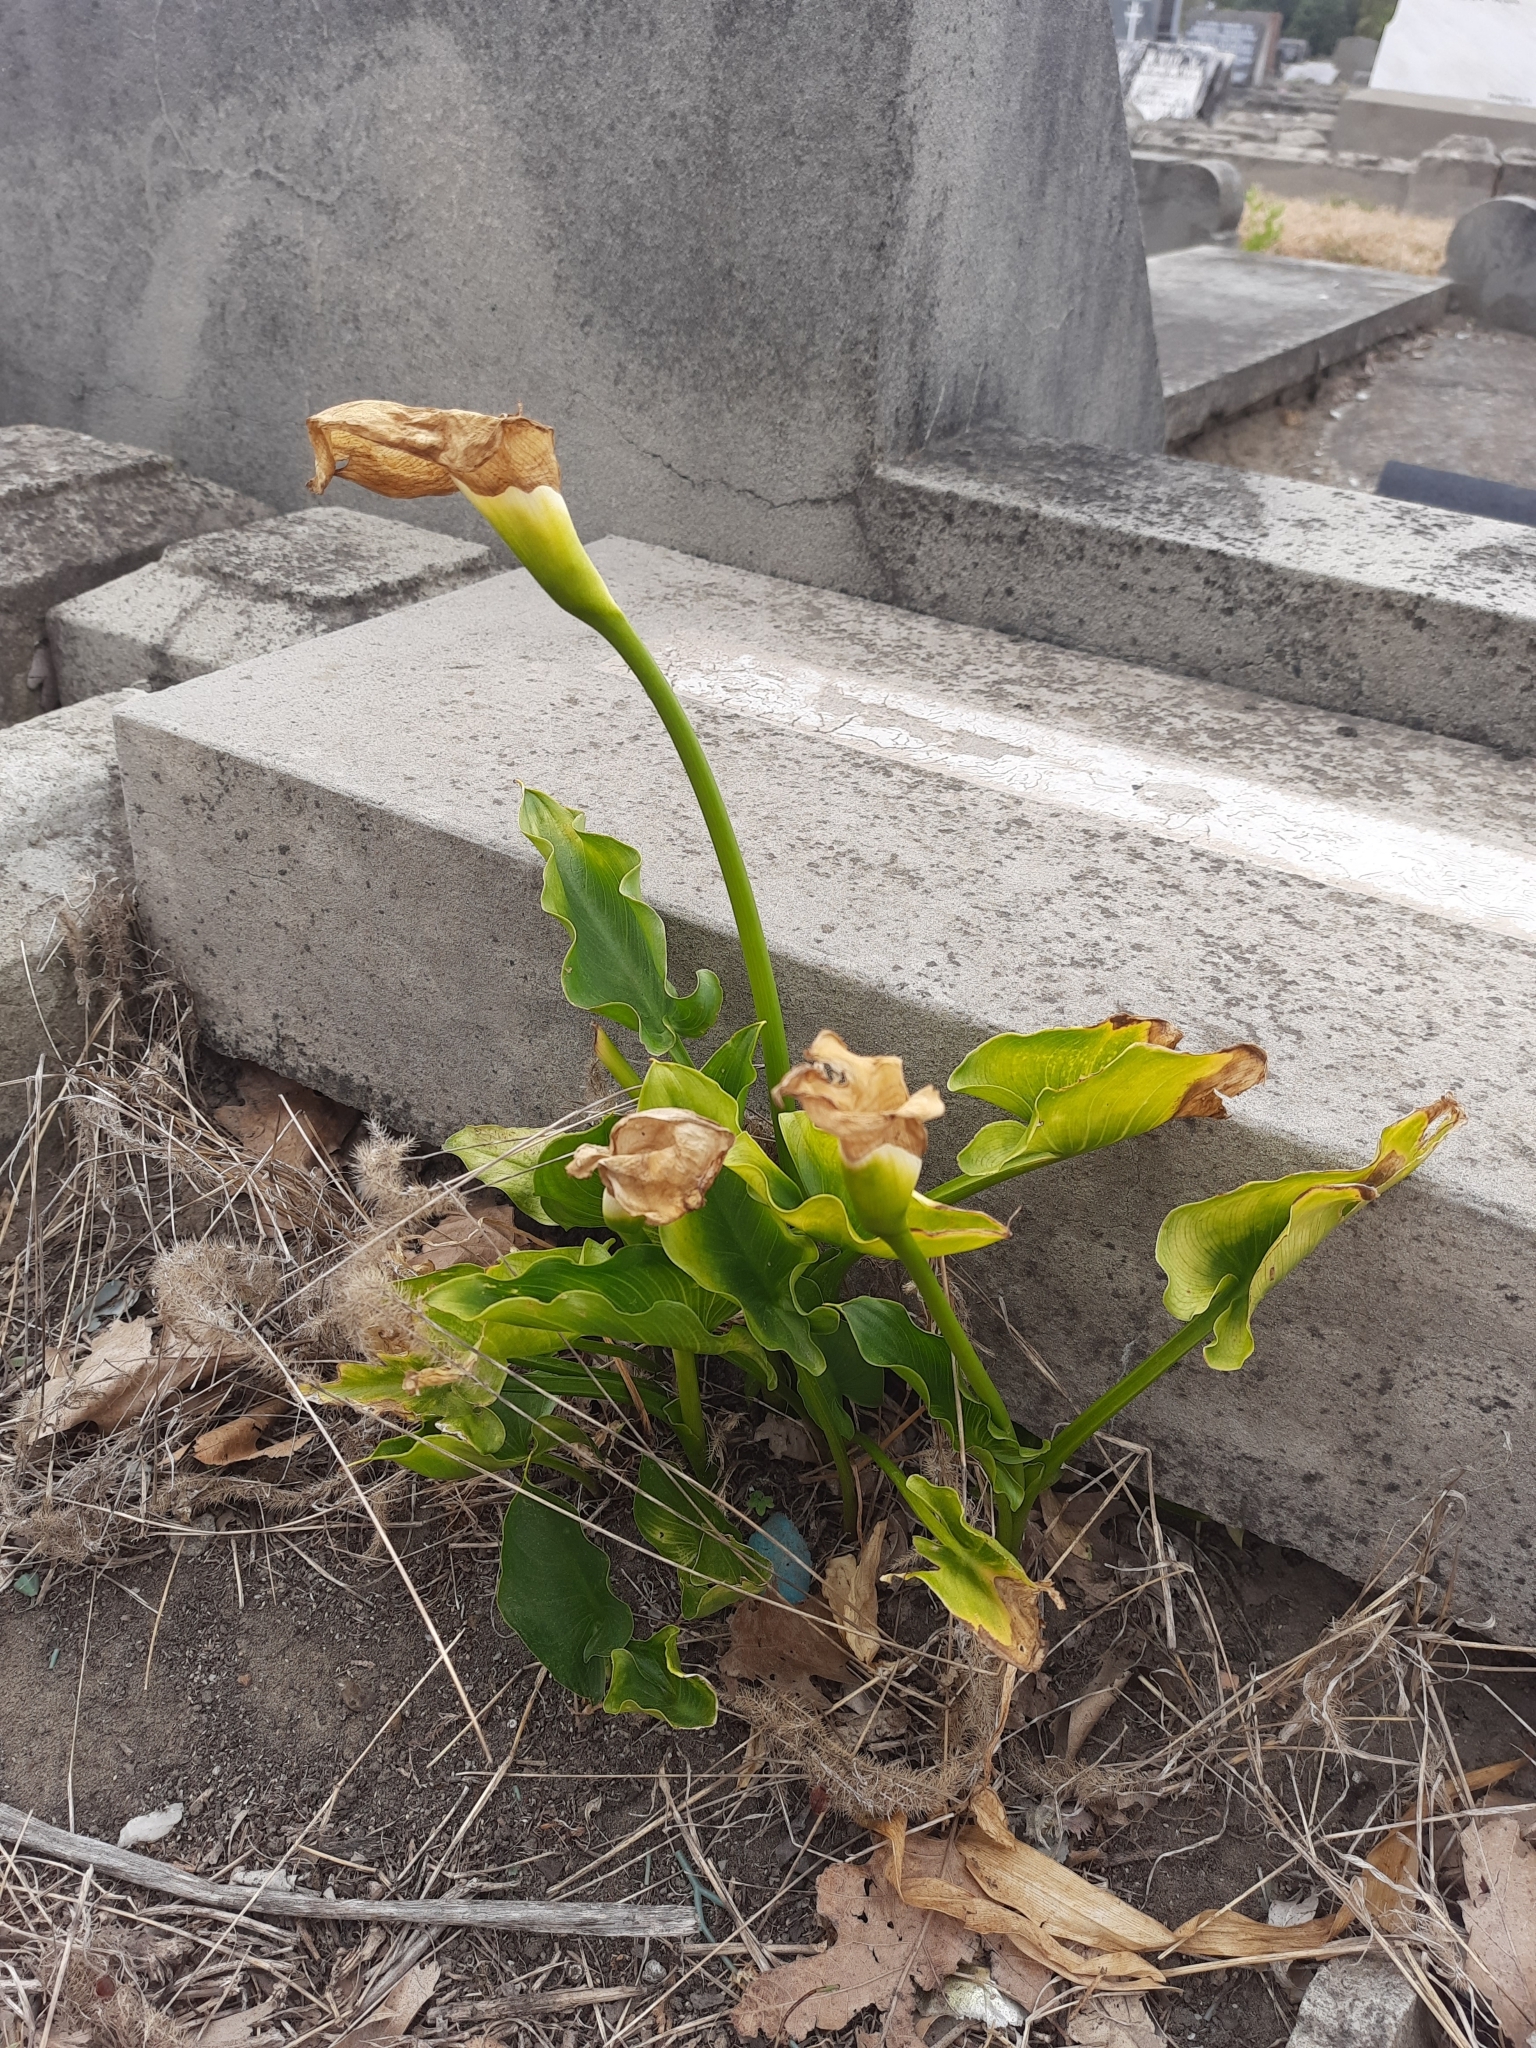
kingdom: Plantae
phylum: Tracheophyta
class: Liliopsida
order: Alismatales
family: Araceae
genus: Zantedeschia
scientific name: Zantedeschia aethiopica
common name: Altar-lily
